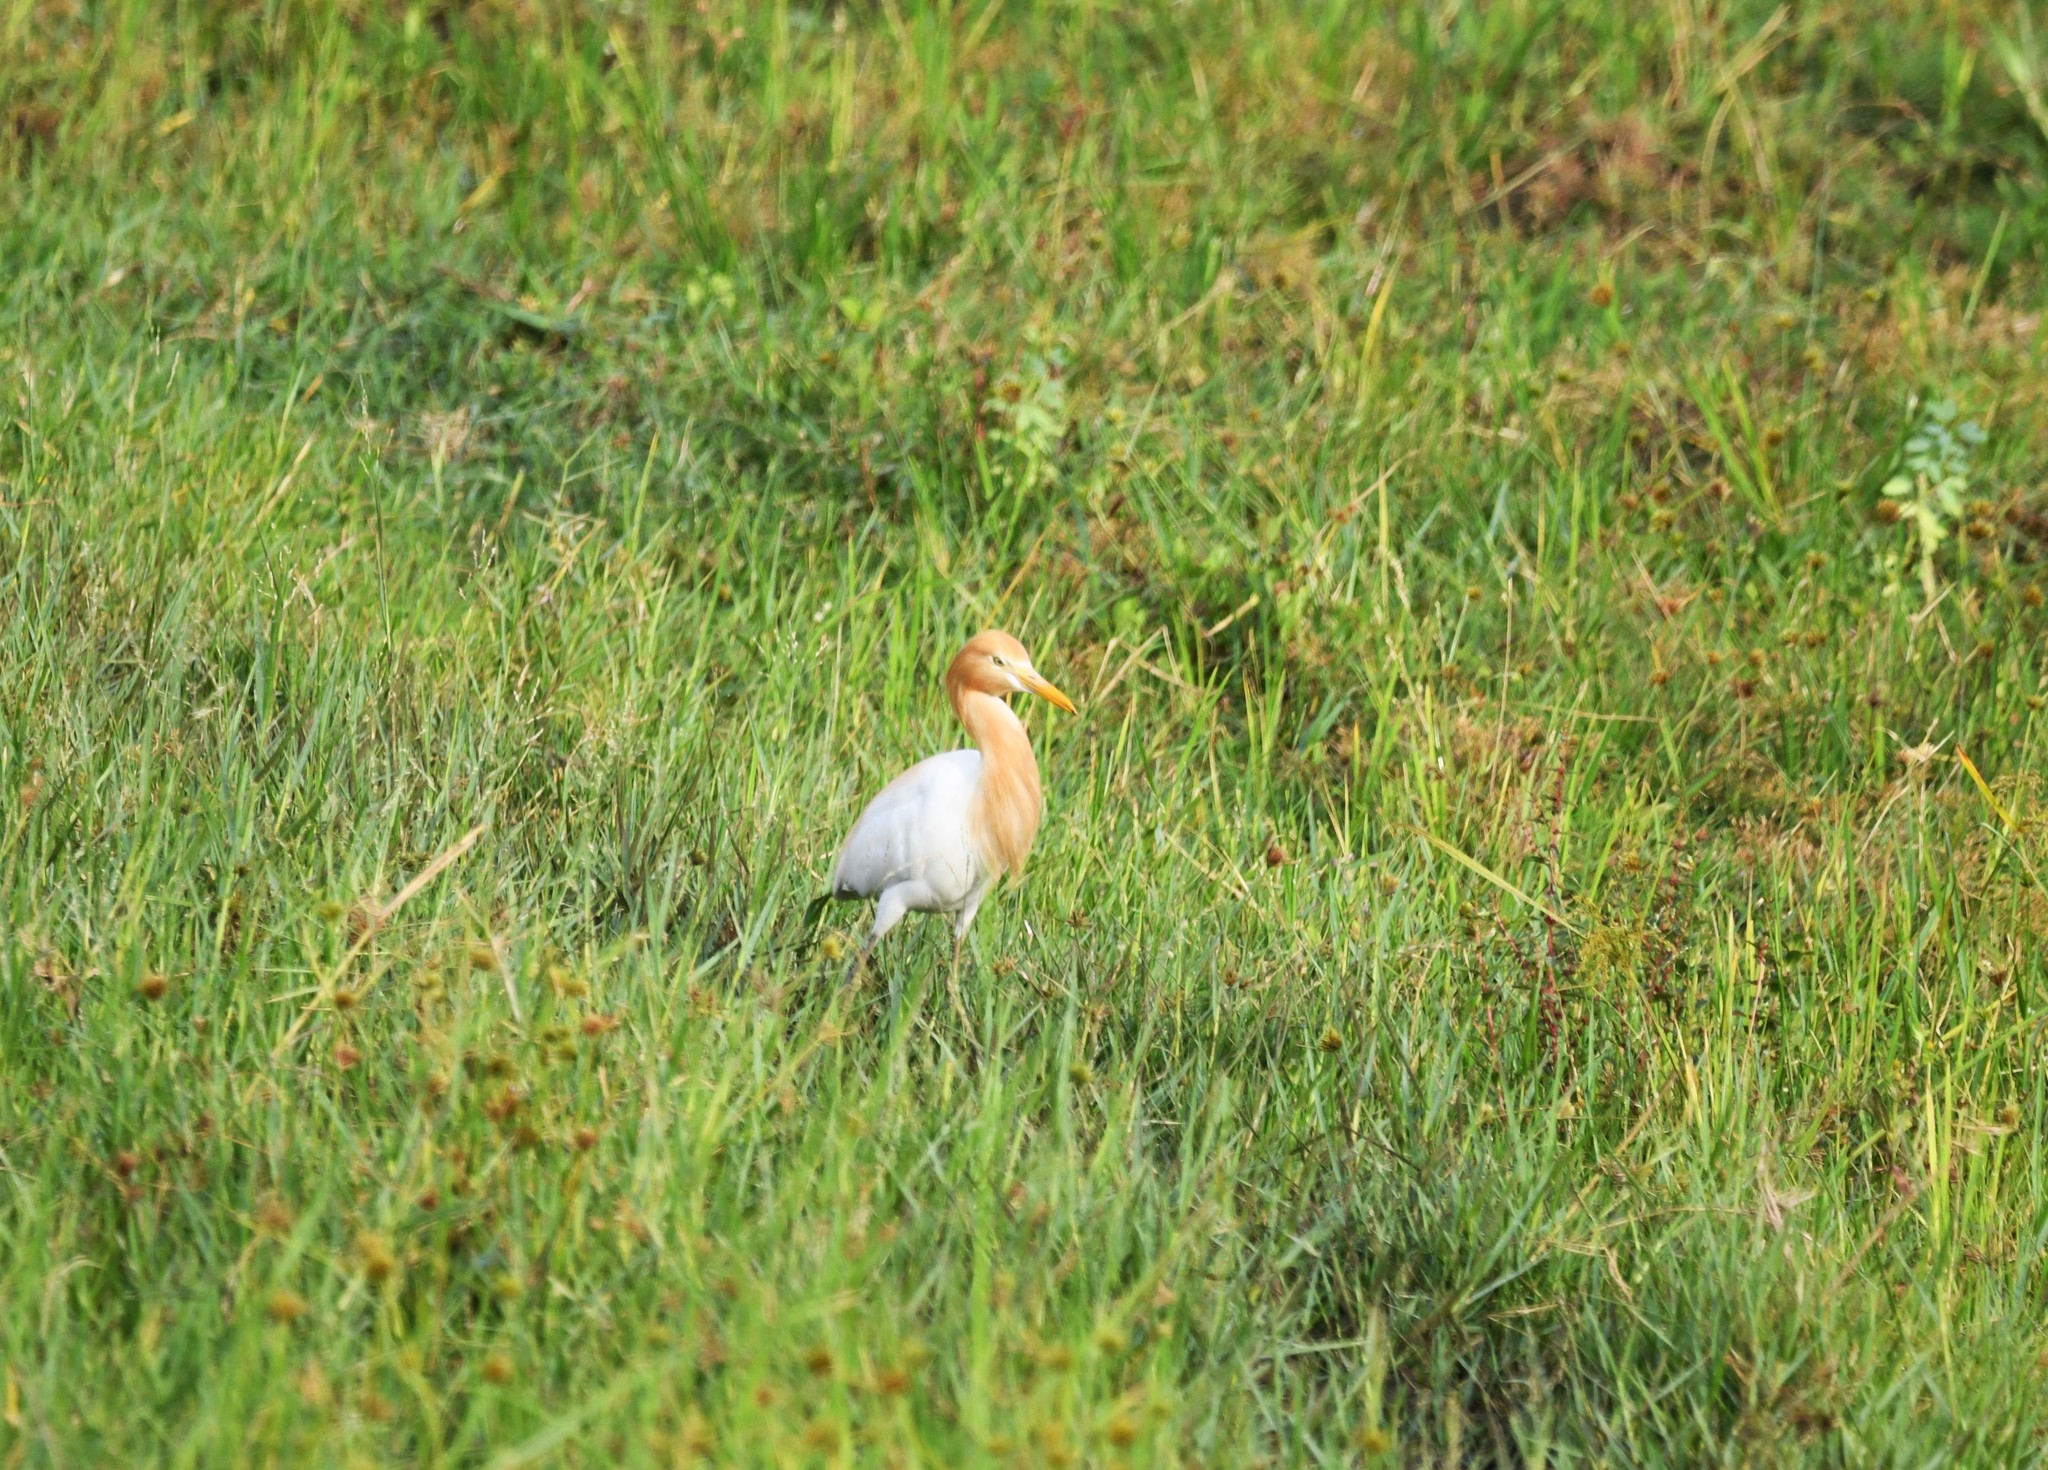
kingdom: Animalia
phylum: Chordata
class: Aves
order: Pelecaniformes
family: Ardeidae
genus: Bubulcus
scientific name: Bubulcus coromandus
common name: Eastern cattle egret
